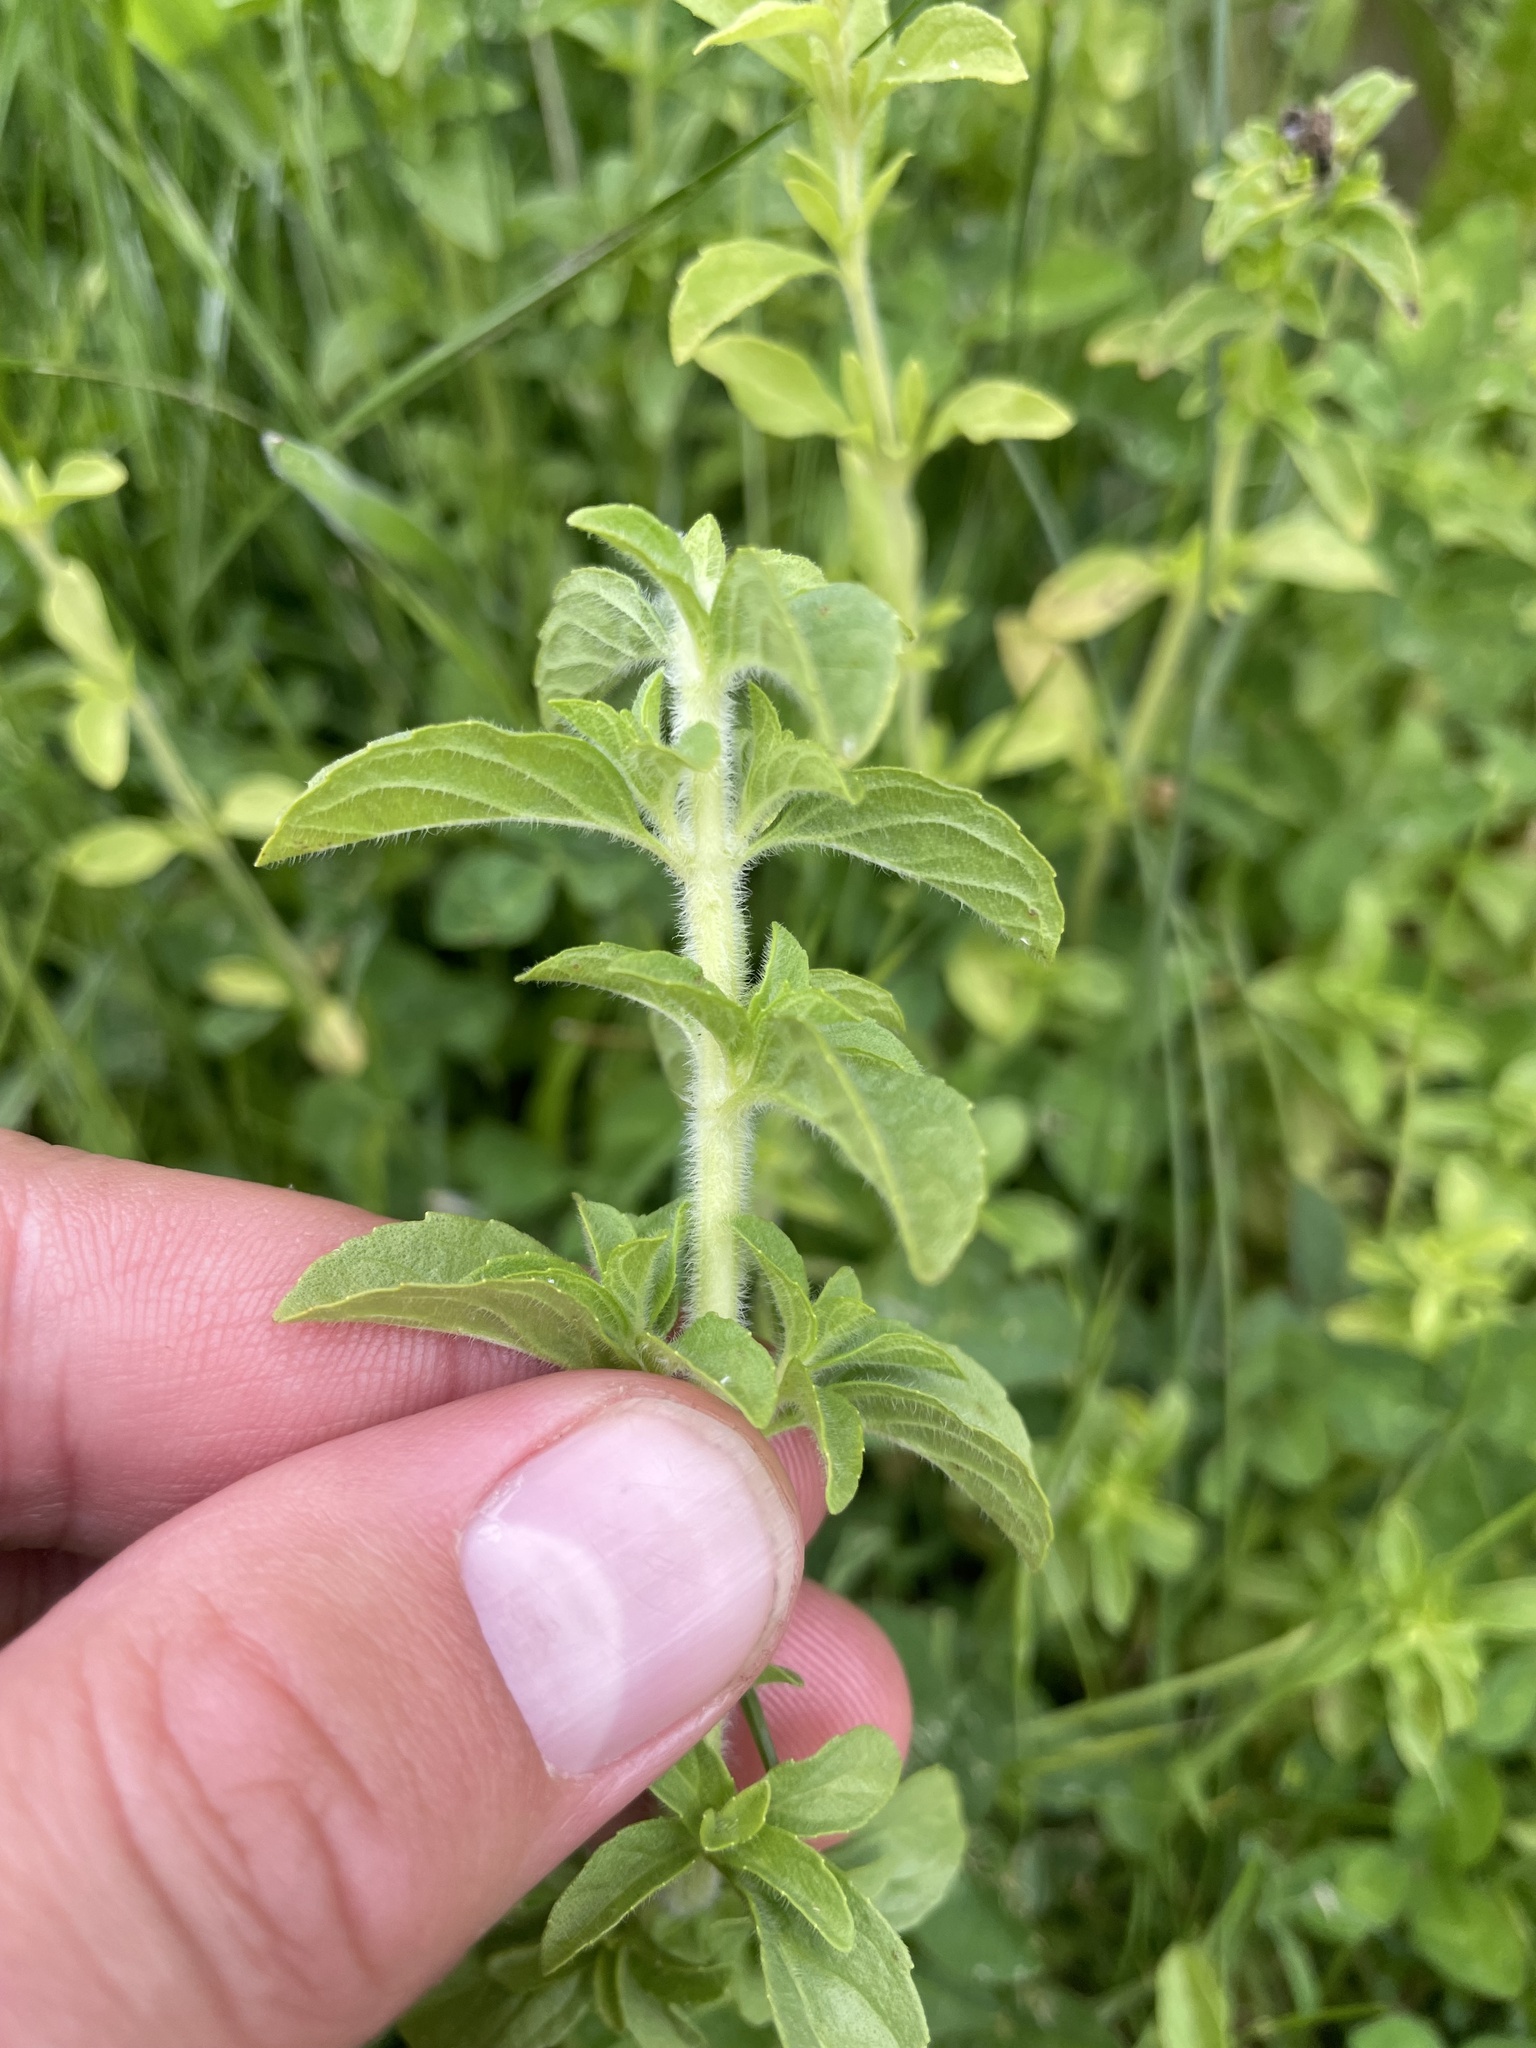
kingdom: Plantae
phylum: Tracheophyta
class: Magnoliopsida
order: Lamiales
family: Lamiaceae
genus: Mentha
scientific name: Mentha pulegium
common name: Pennyroyal
